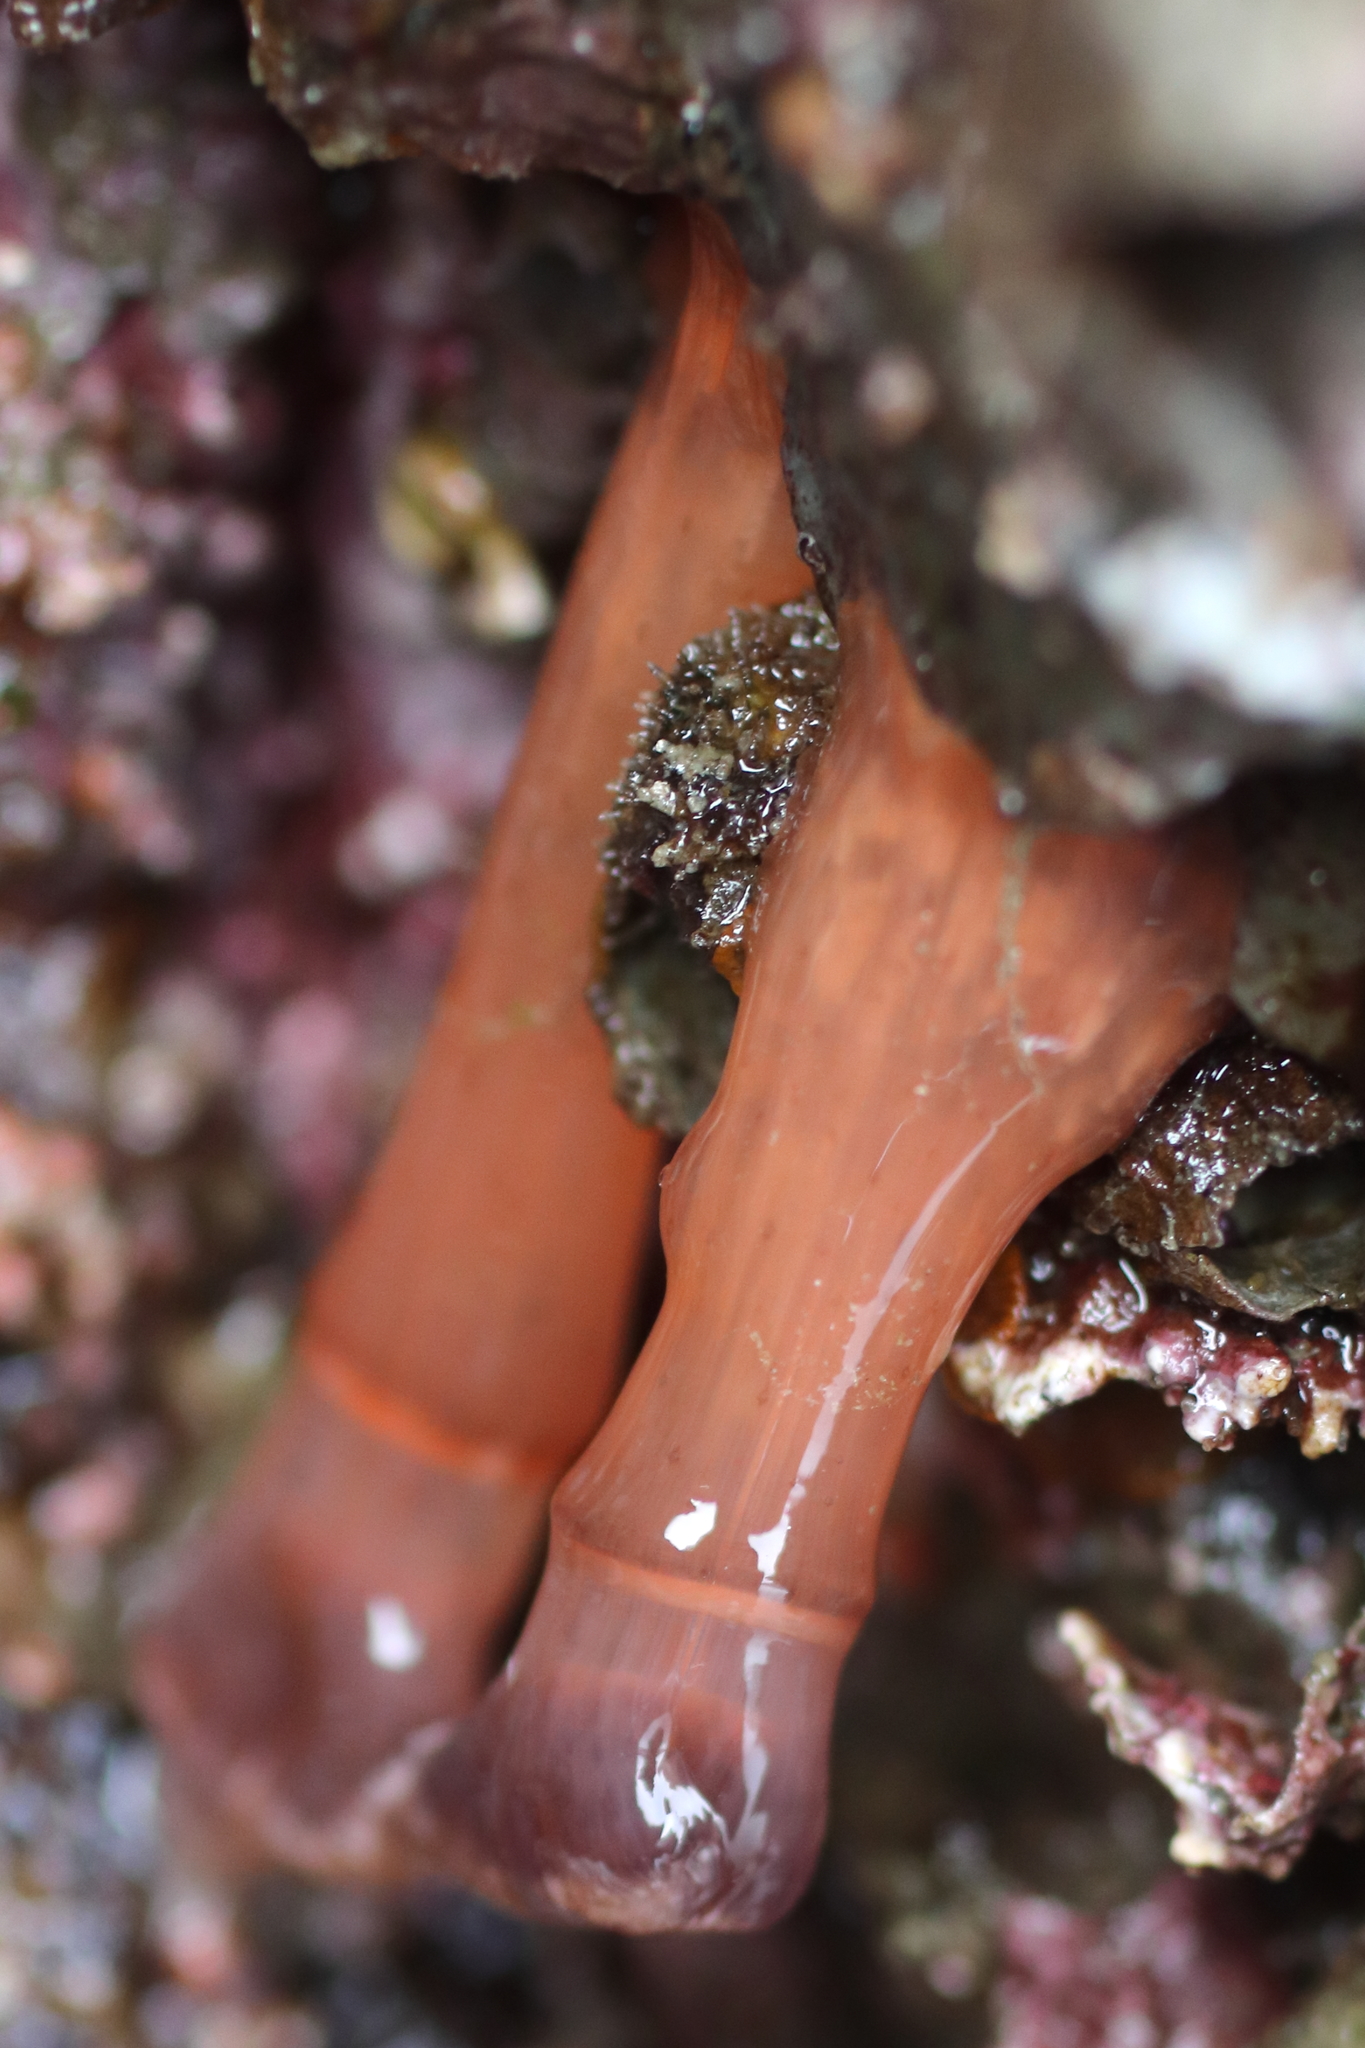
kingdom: Animalia
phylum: Cnidaria
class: Anthozoa
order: Actiniaria
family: Metridiidae
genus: Metridium
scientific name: Metridium senile
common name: Clonal plumose anemone
